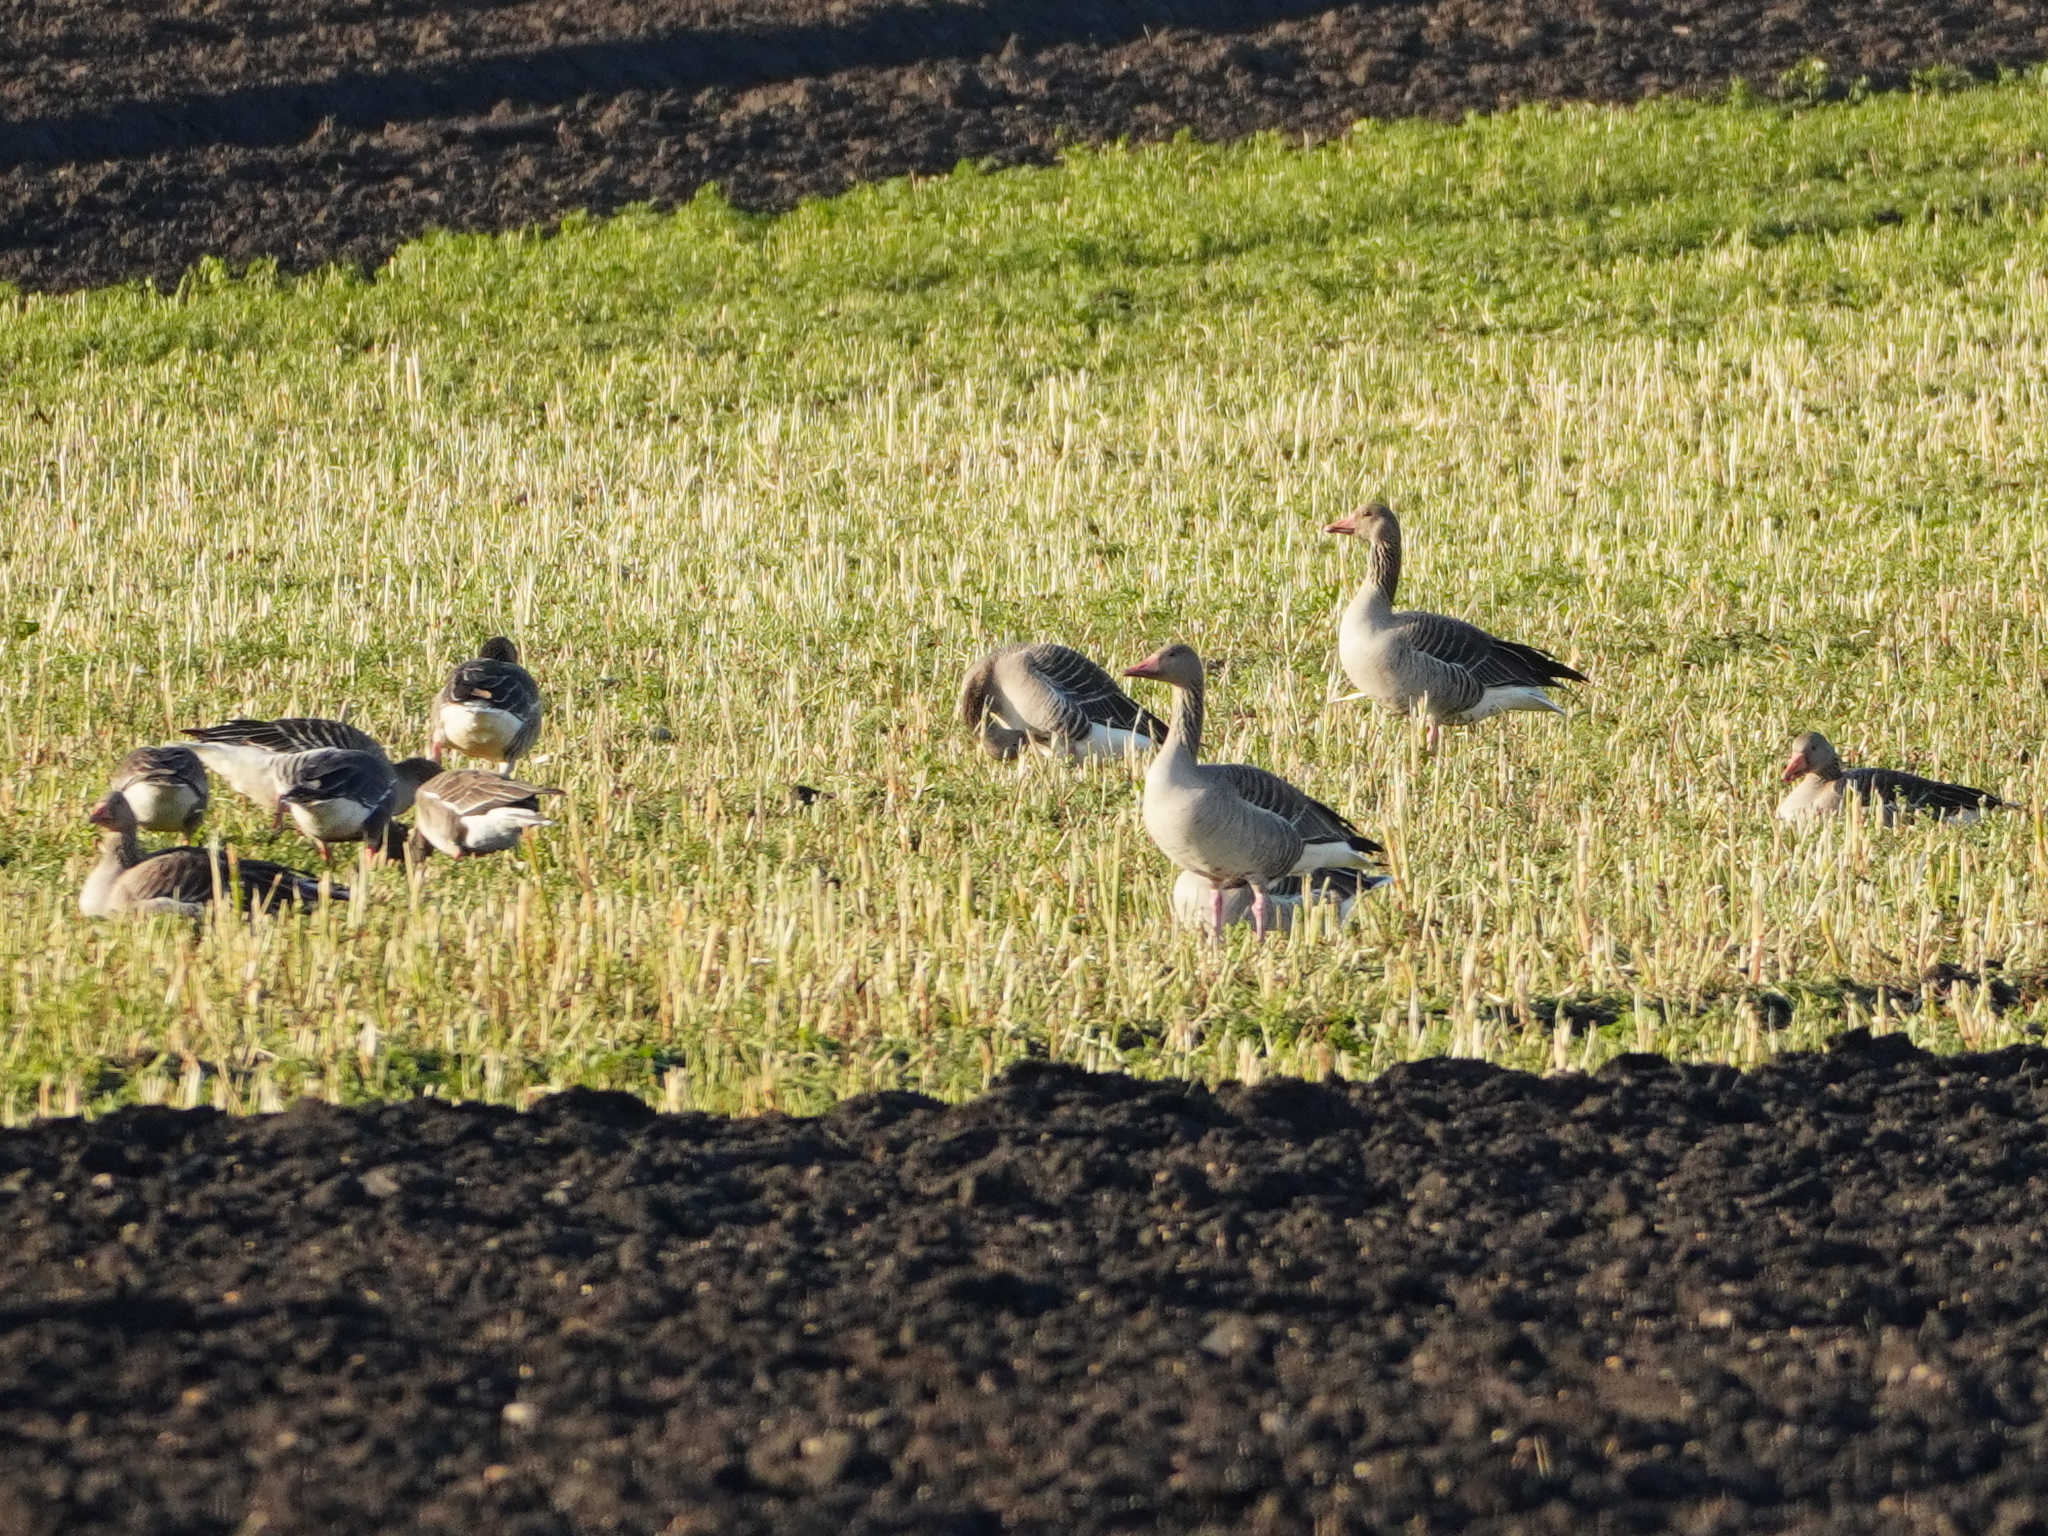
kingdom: Animalia
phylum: Chordata
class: Aves
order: Anseriformes
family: Anatidae
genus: Anser
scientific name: Anser anser
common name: Greylag goose
